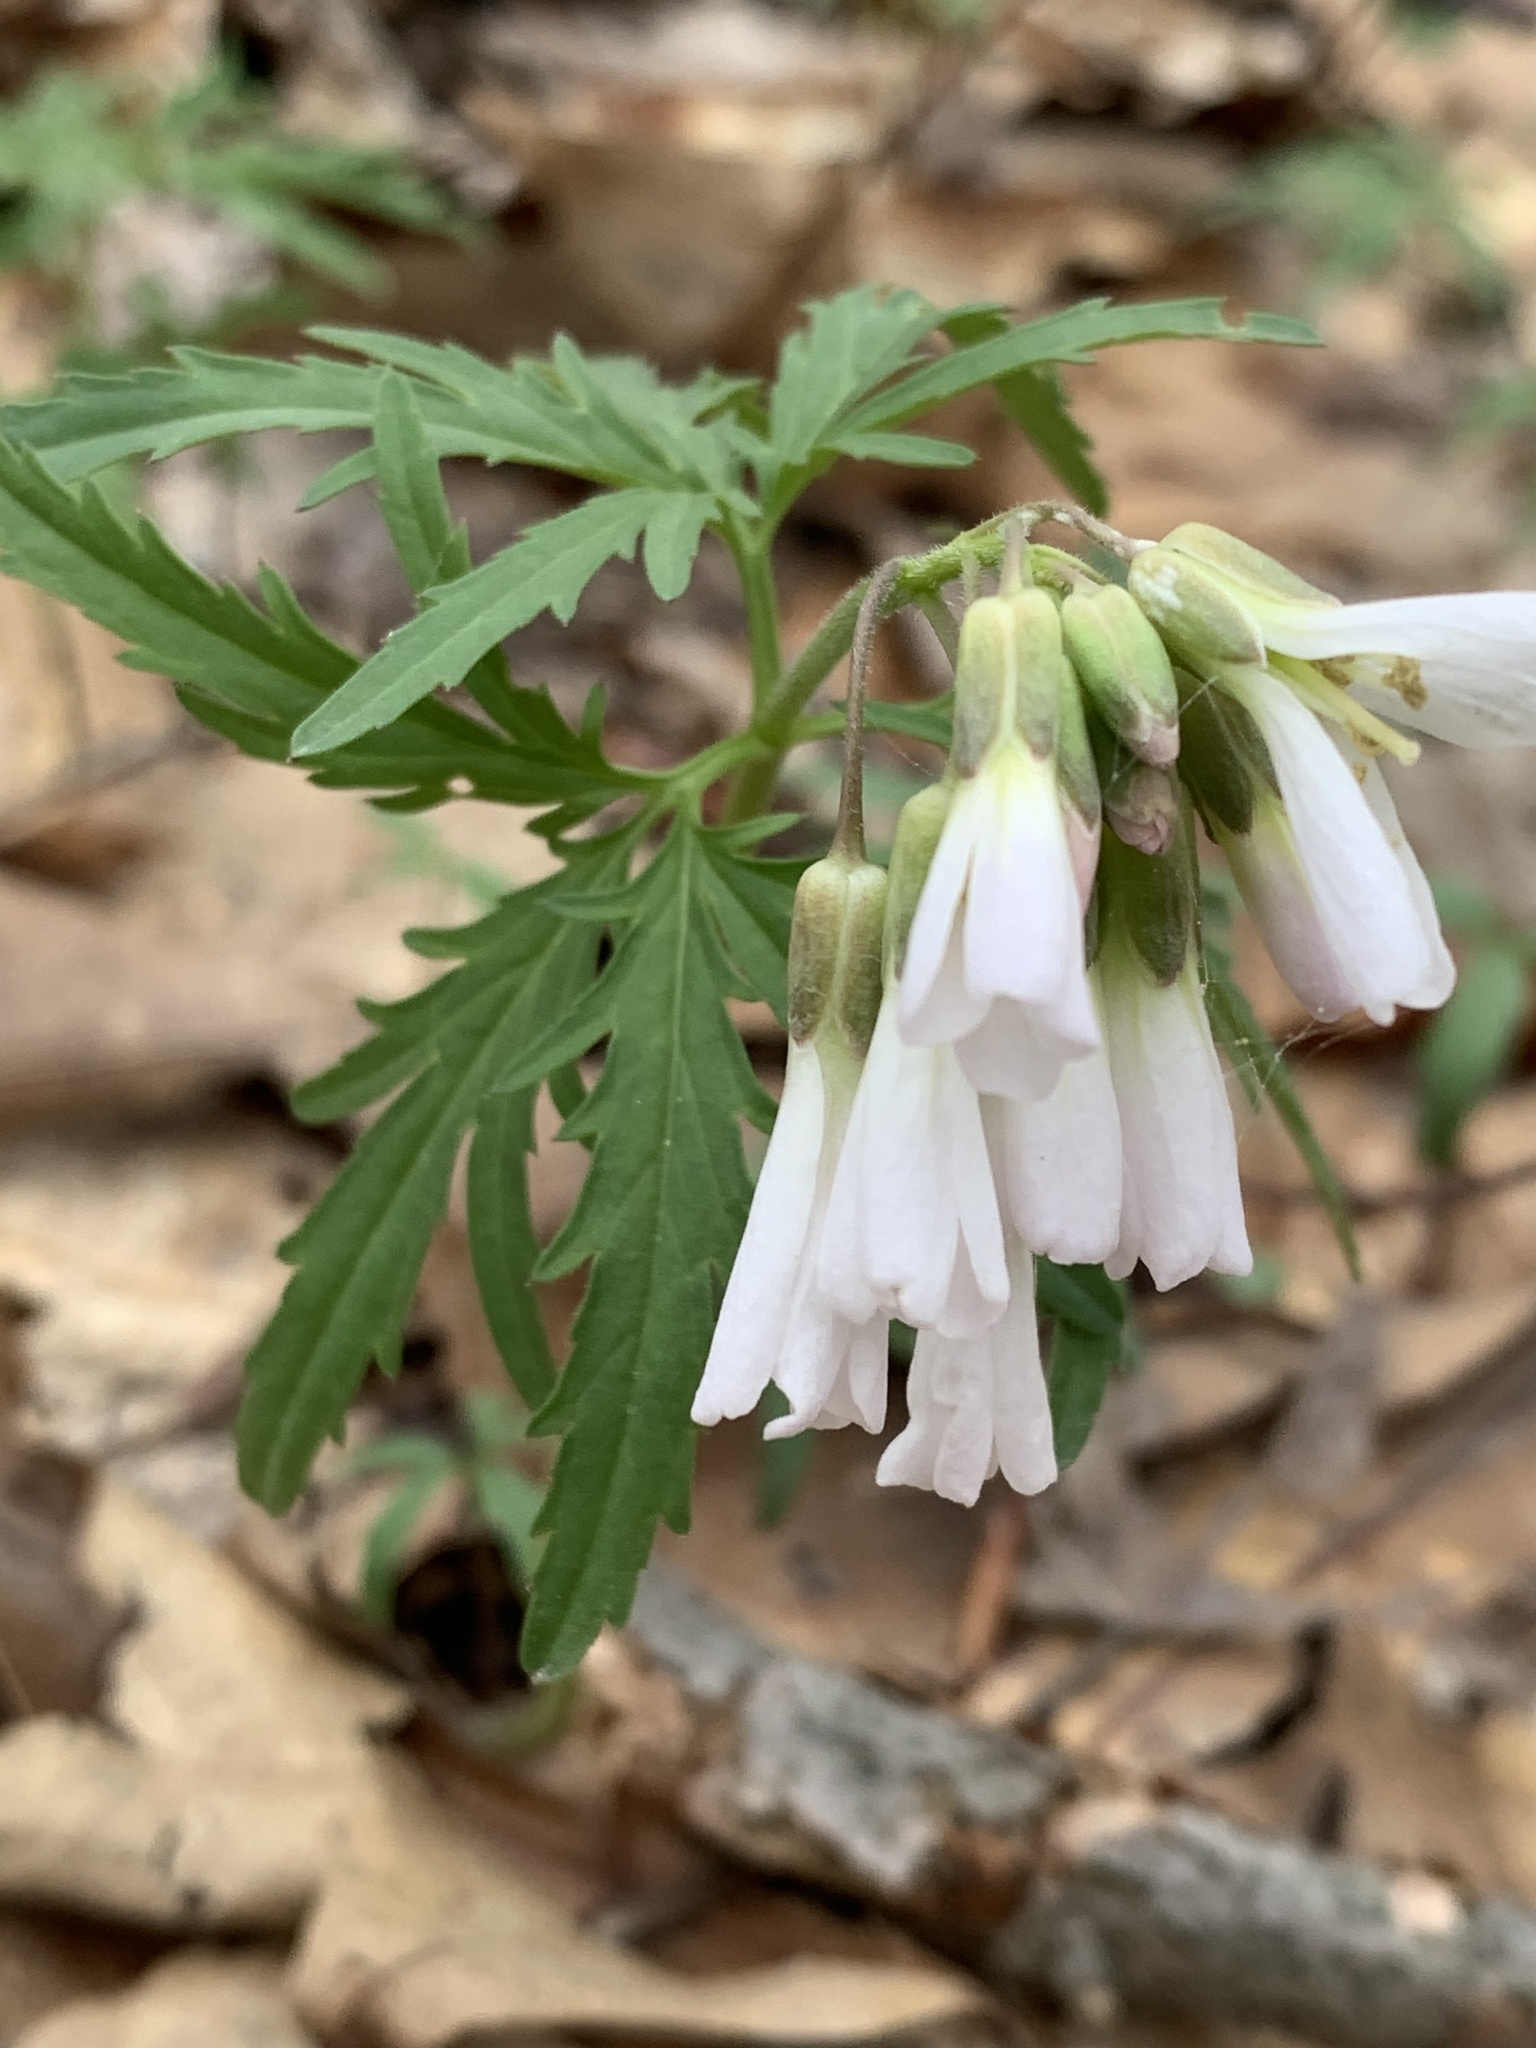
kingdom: Plantae
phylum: Tracheophyta
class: Magnoliopsida
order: Brassicales
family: Brassicaceae
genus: Cardamine
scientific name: Cardamine concatenata
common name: Cut-leaf toothcup
